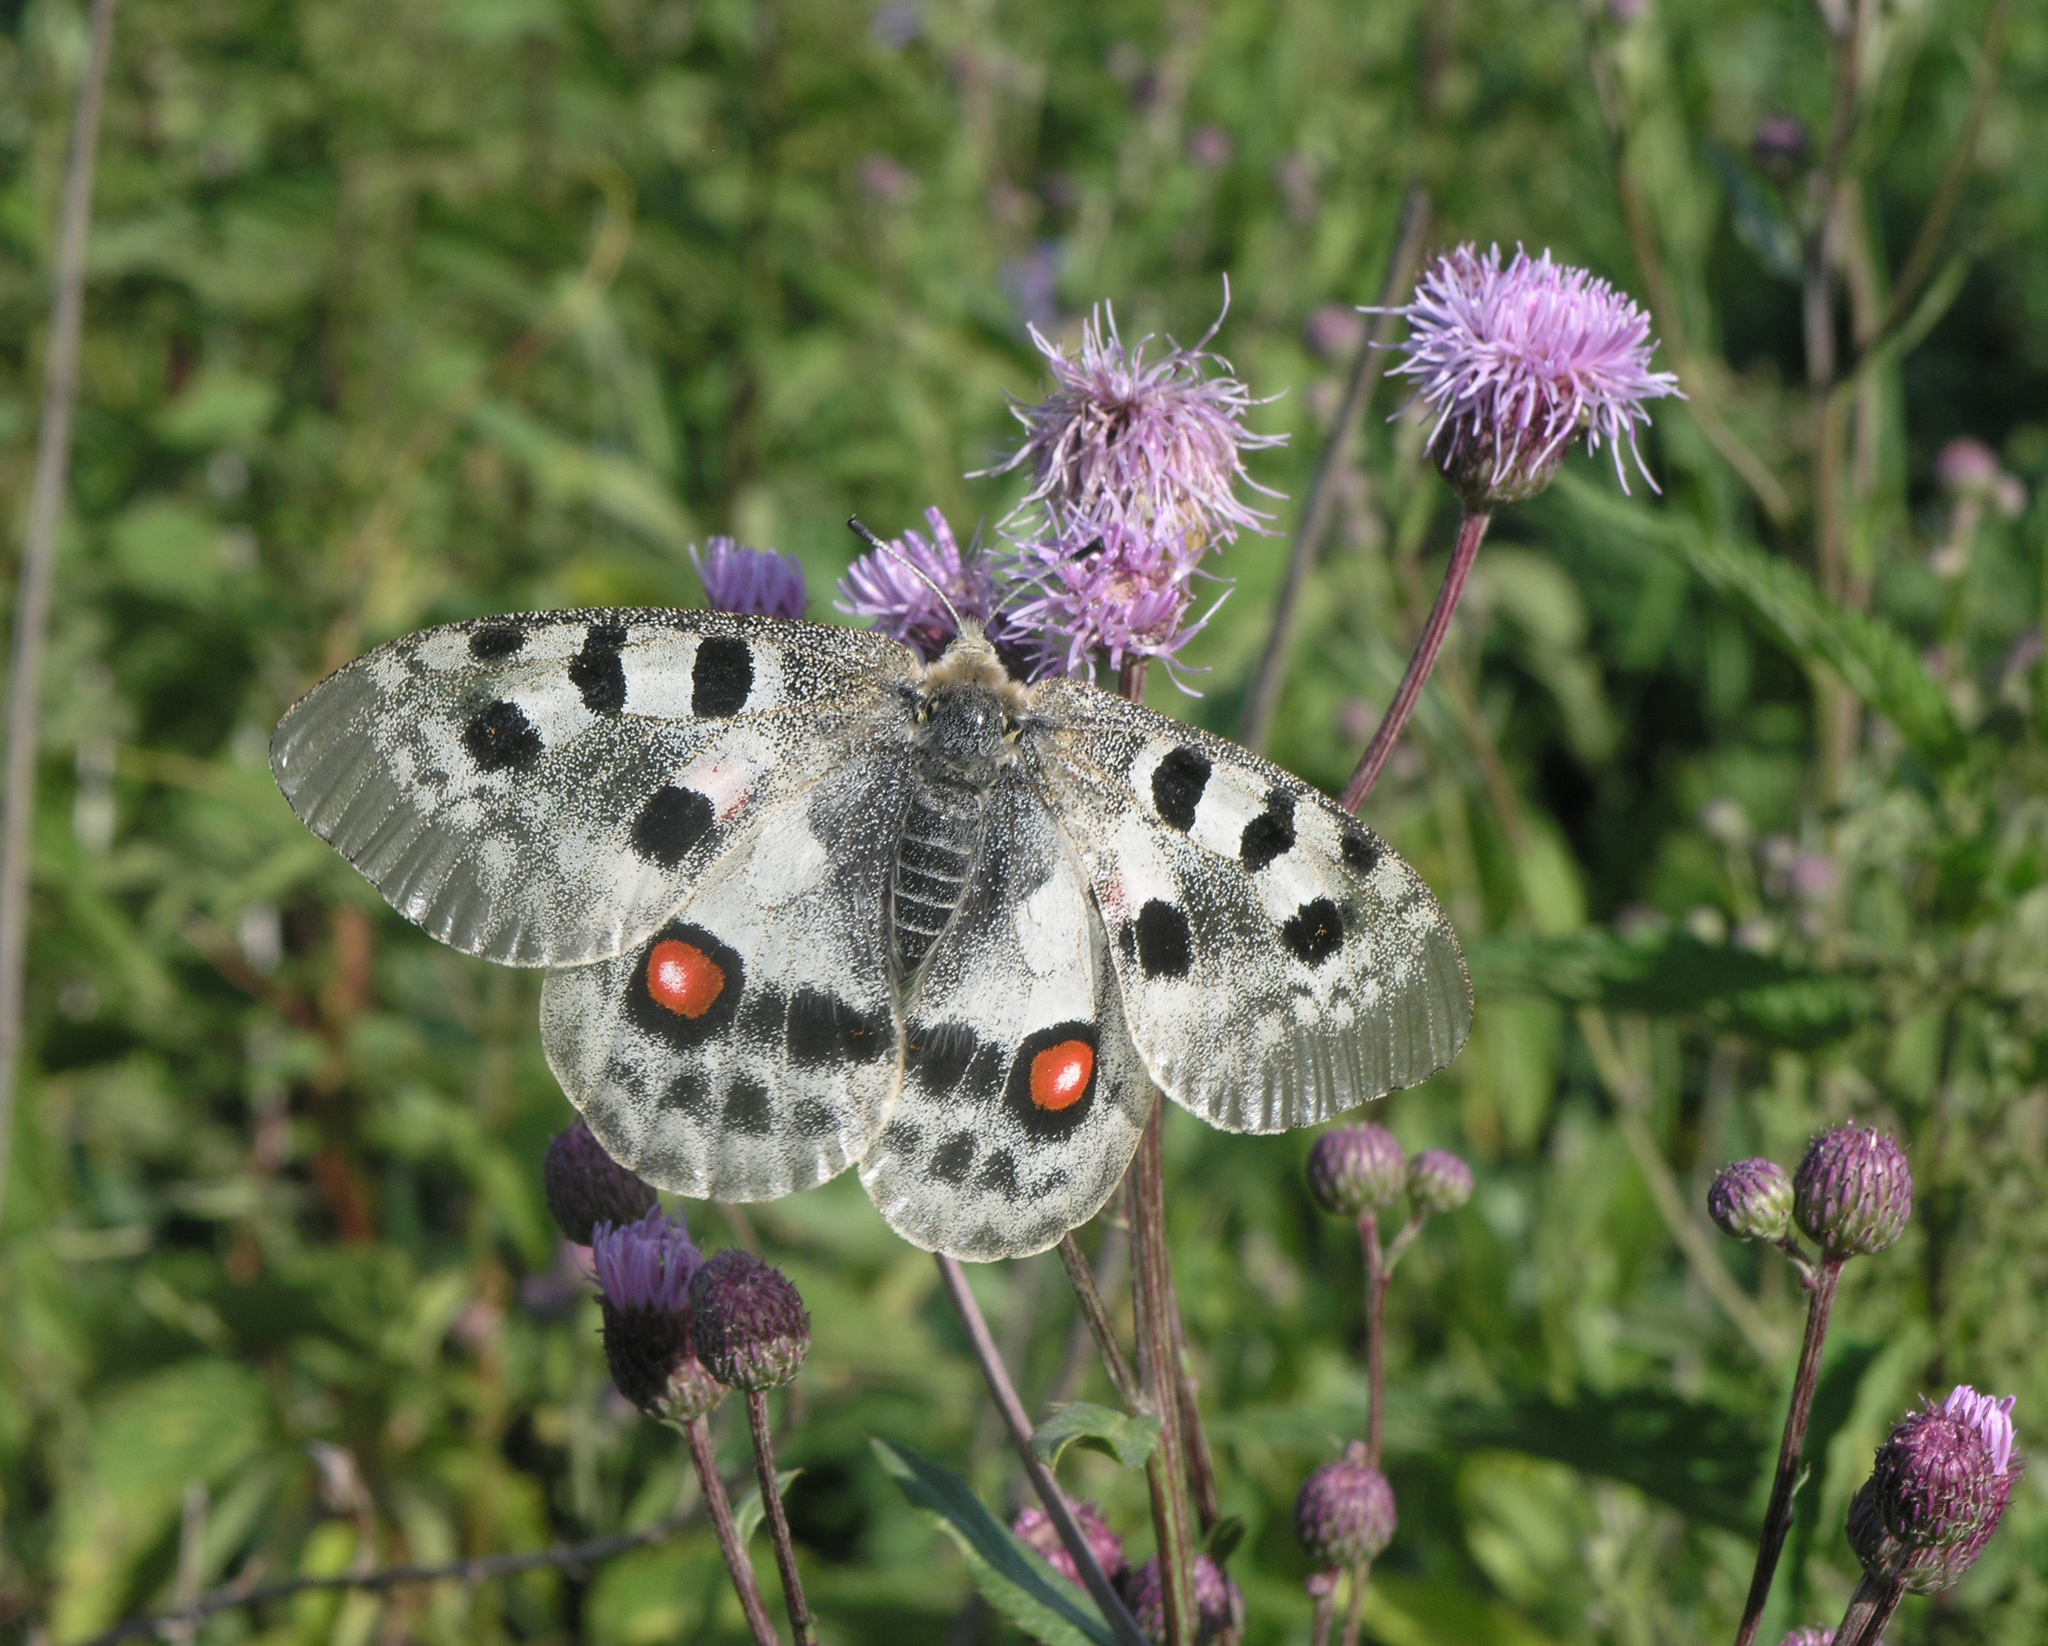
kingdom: Plantae
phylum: Tracheophyta
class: Magnoliopsida
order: Asterales
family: Asteraceae
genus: Cirsium
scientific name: Cirsium arvense
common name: Creeping thistle
